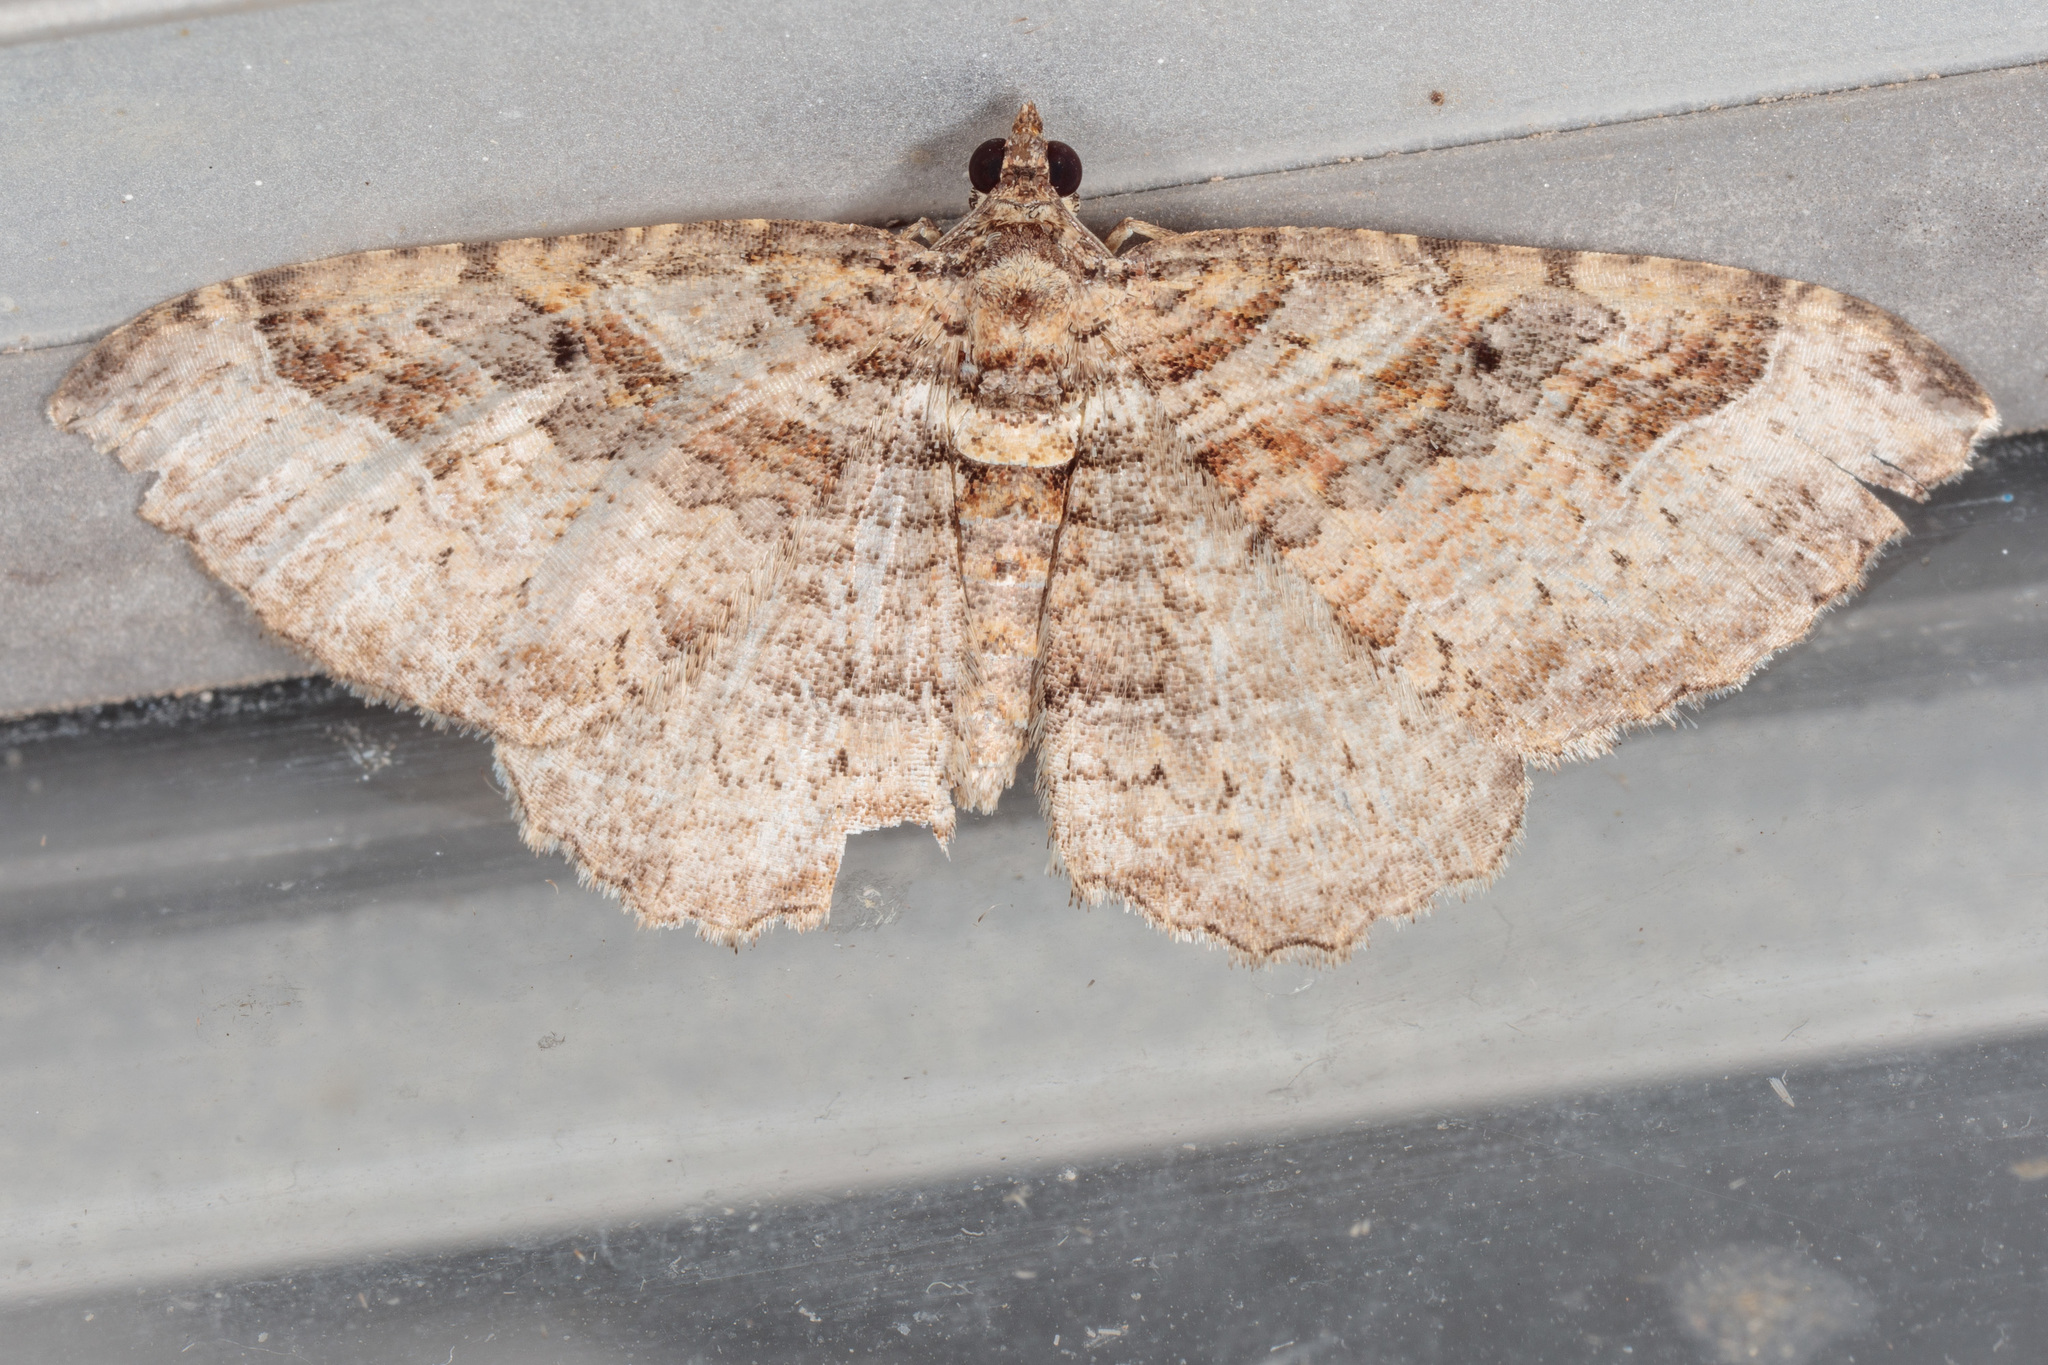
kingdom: Animalia
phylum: Arthropoda
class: Insecta
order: Lepidoptera
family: Geometridae
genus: Costaconvexa
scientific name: Costaconvexa centrostrigaria
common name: Bent-line carpet
